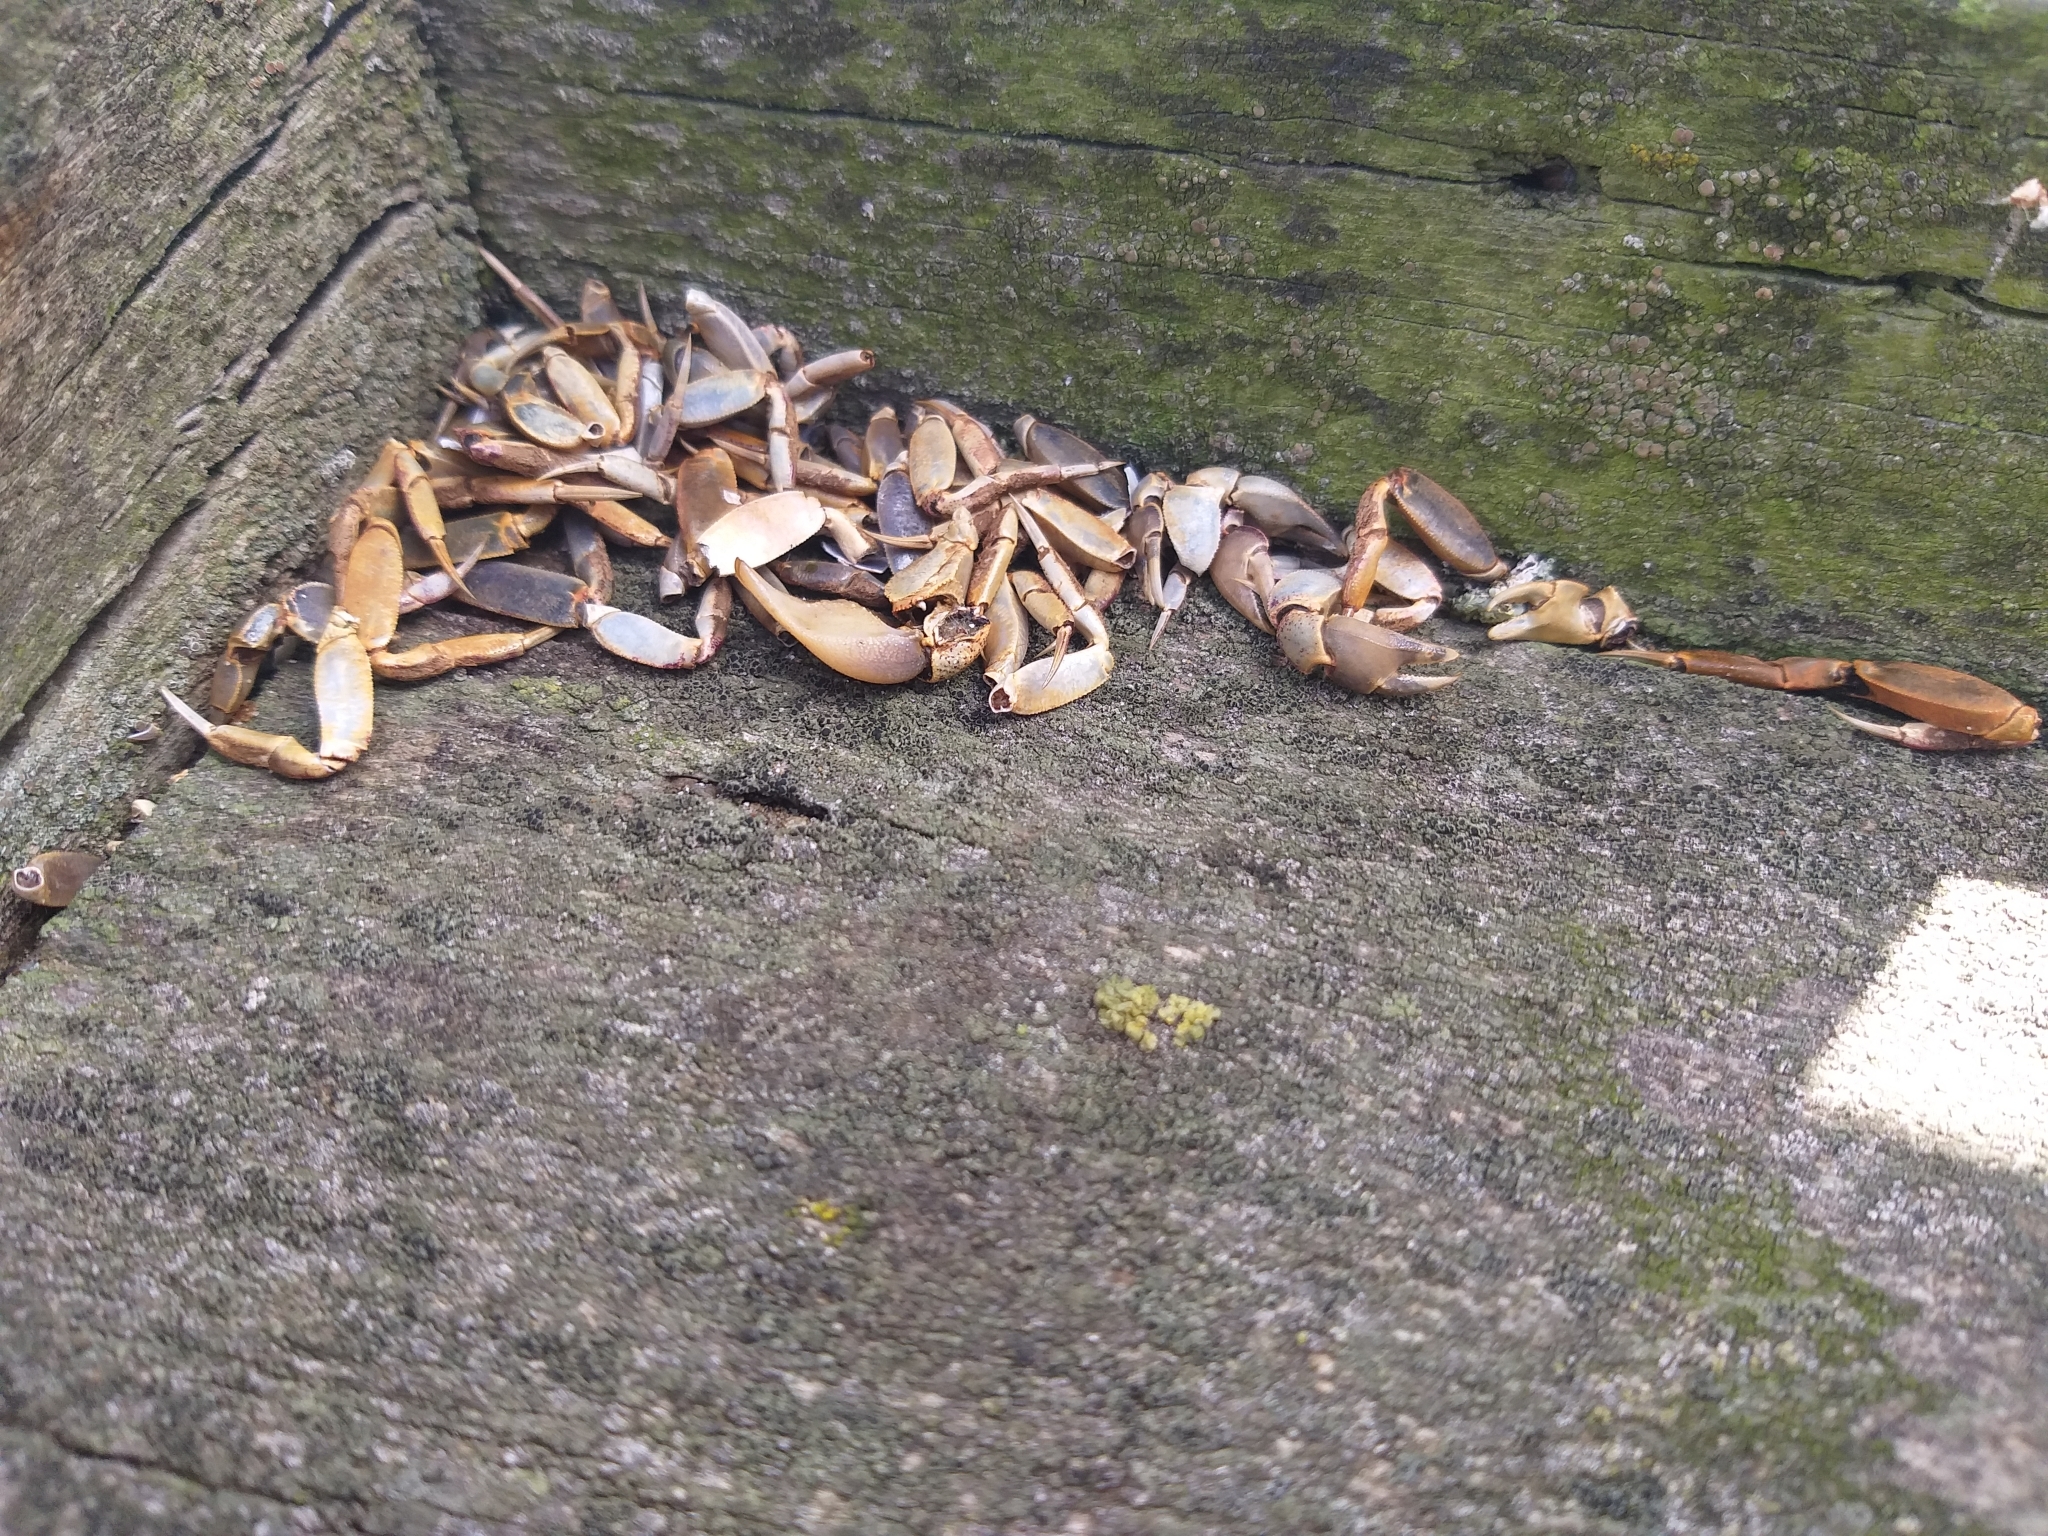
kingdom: Animalia
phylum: Arthropoda
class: Malacostraca
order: Decapoda
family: Varunidae
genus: Austrohelice
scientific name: Austrohelice crassa
